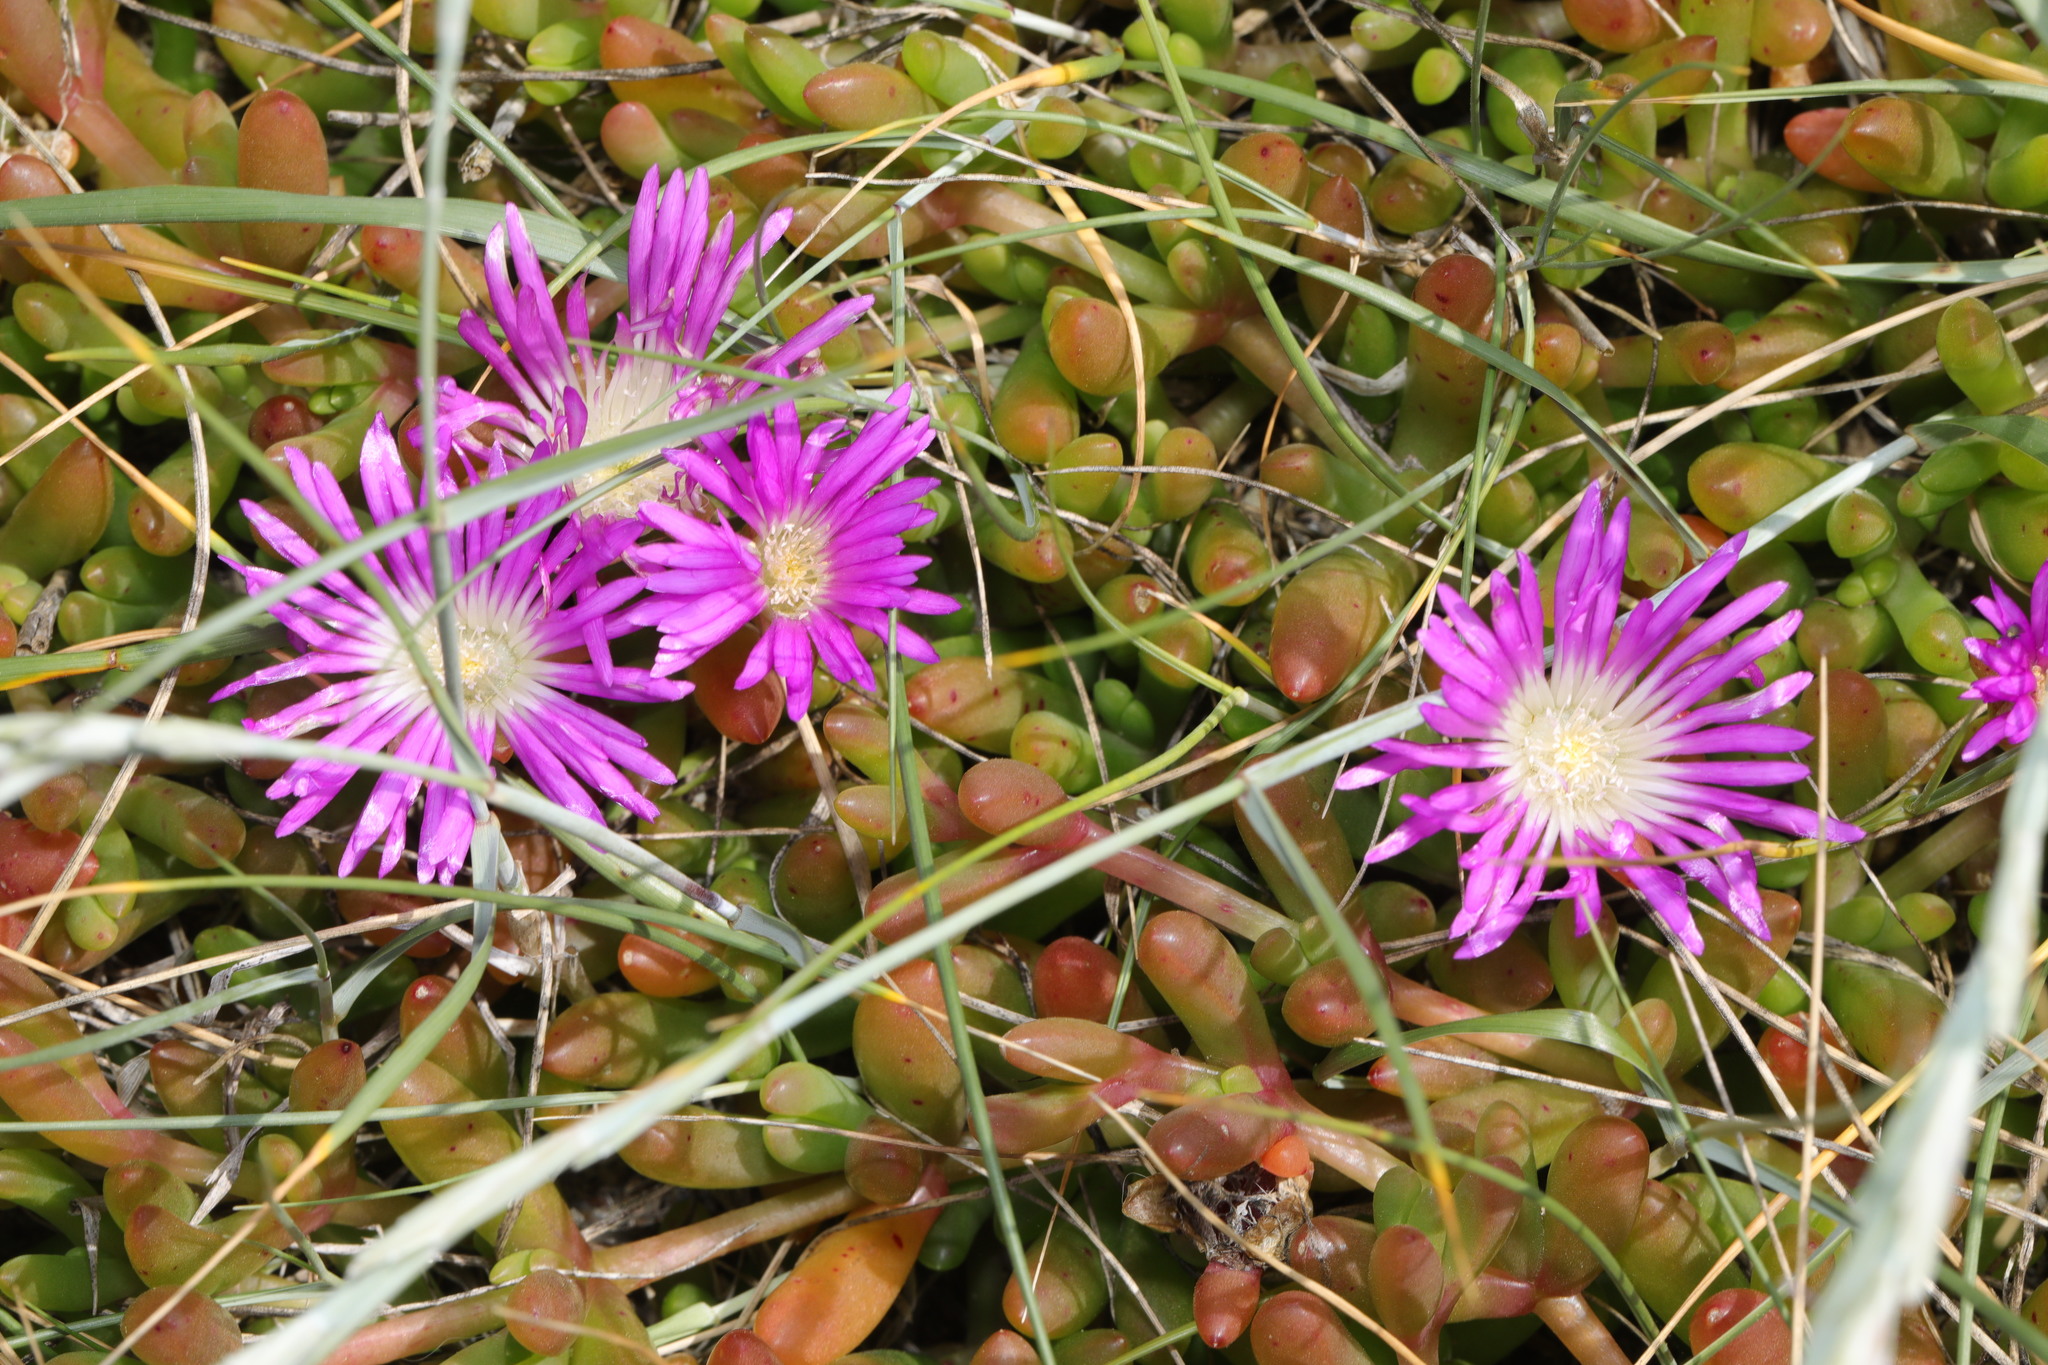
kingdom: Plantae
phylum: Tracheophyta
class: Magnoliopsida
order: Caryophyllales
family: Aizoaceae
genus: Disphyma
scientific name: Disphyma crassifolium
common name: Purple dewplant
